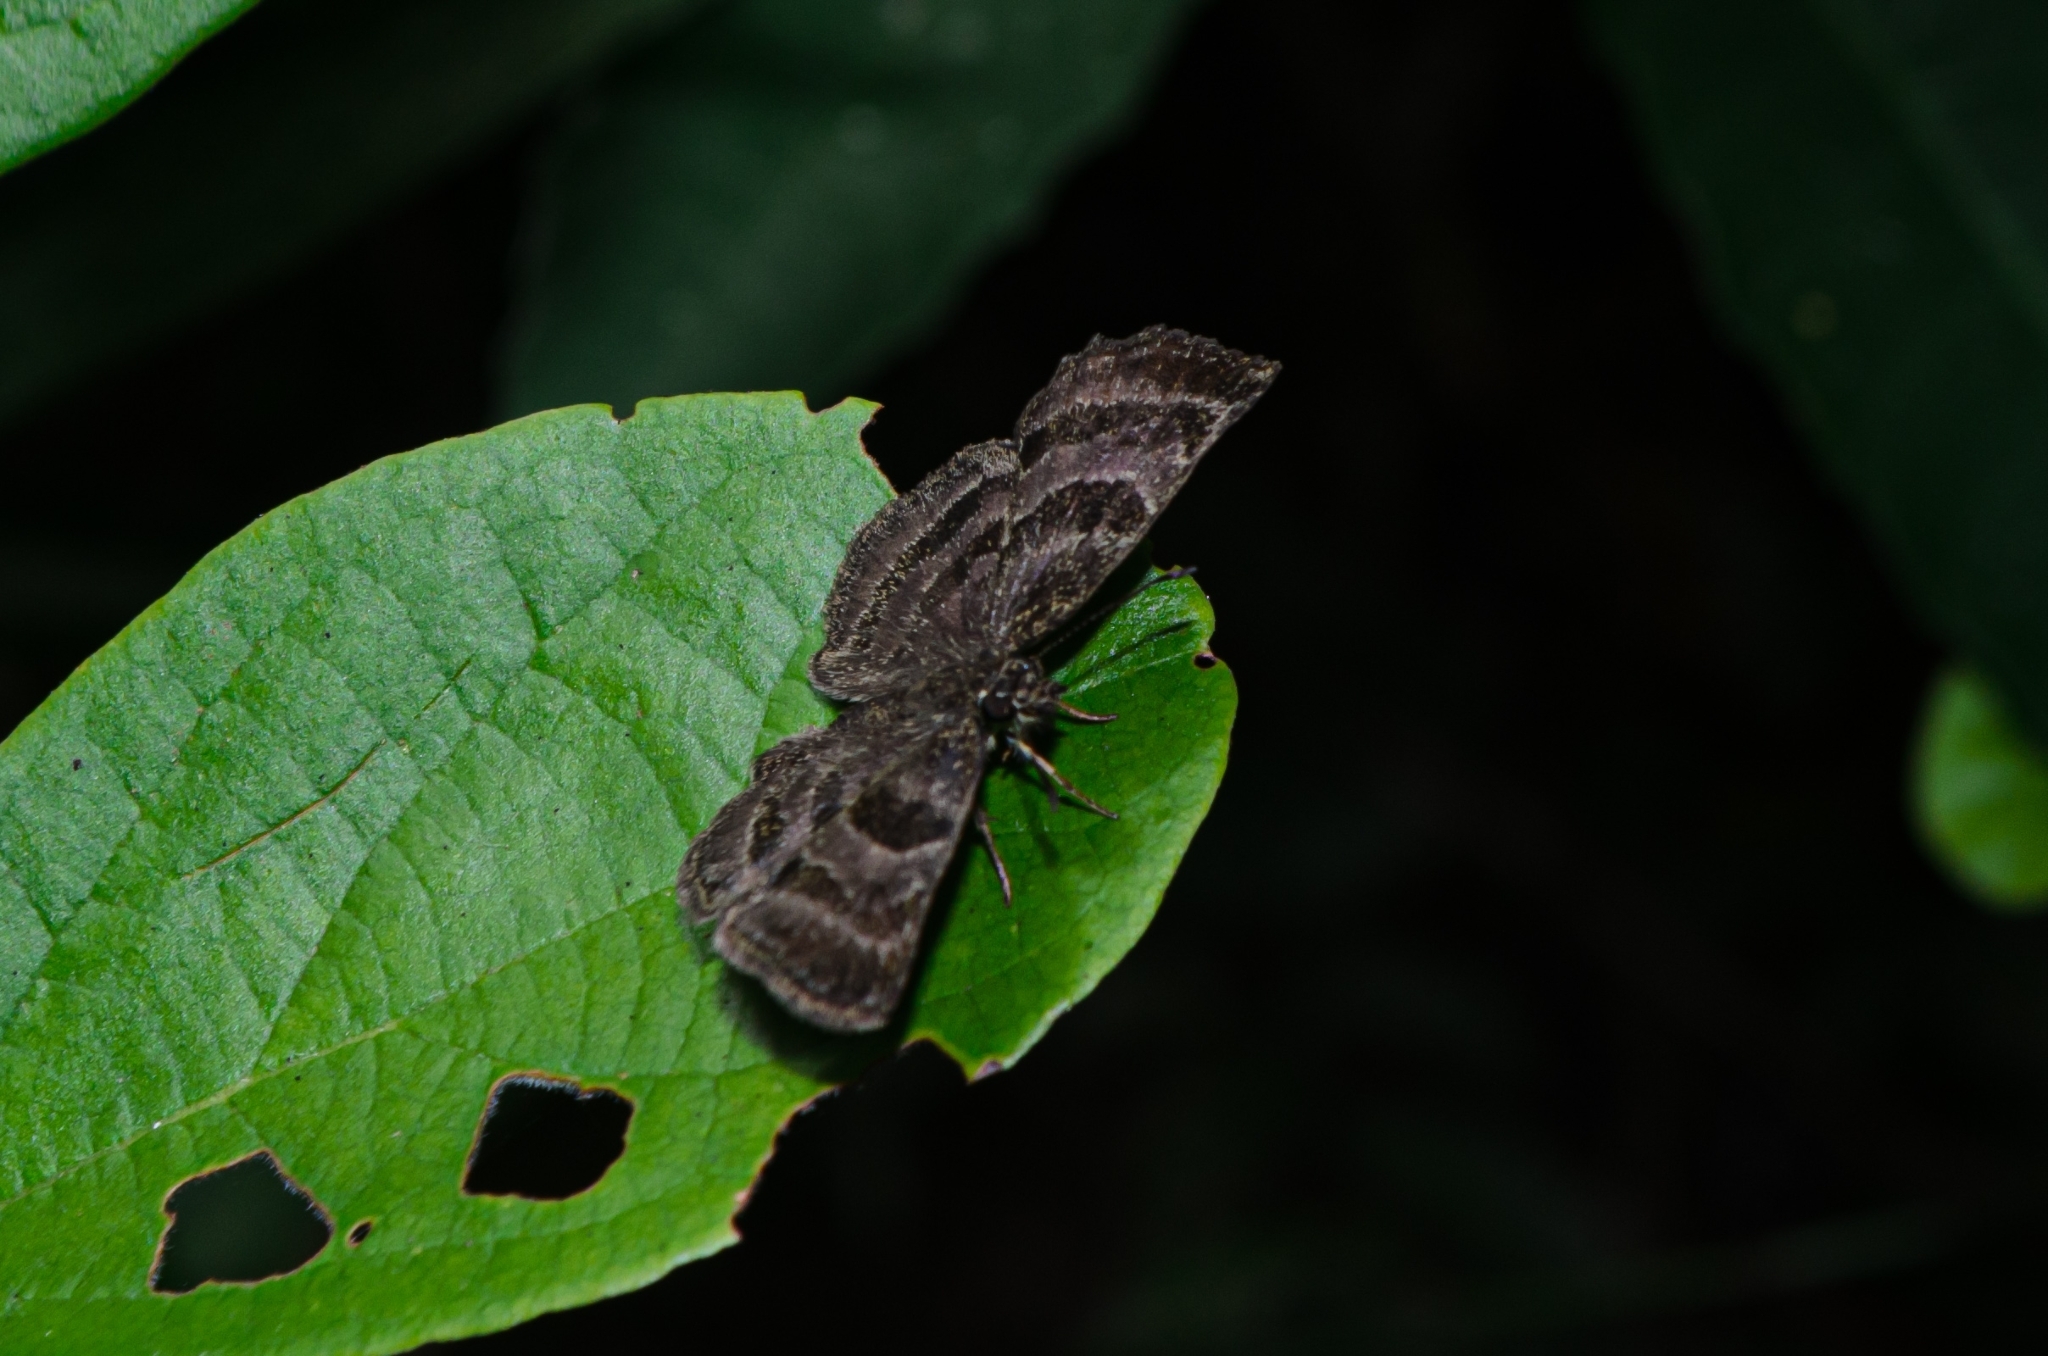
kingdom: Animalia
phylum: Arthropoda
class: Insecta
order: Lepidoptera
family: Hesperiidae
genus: Trina
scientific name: Trina geometrina
